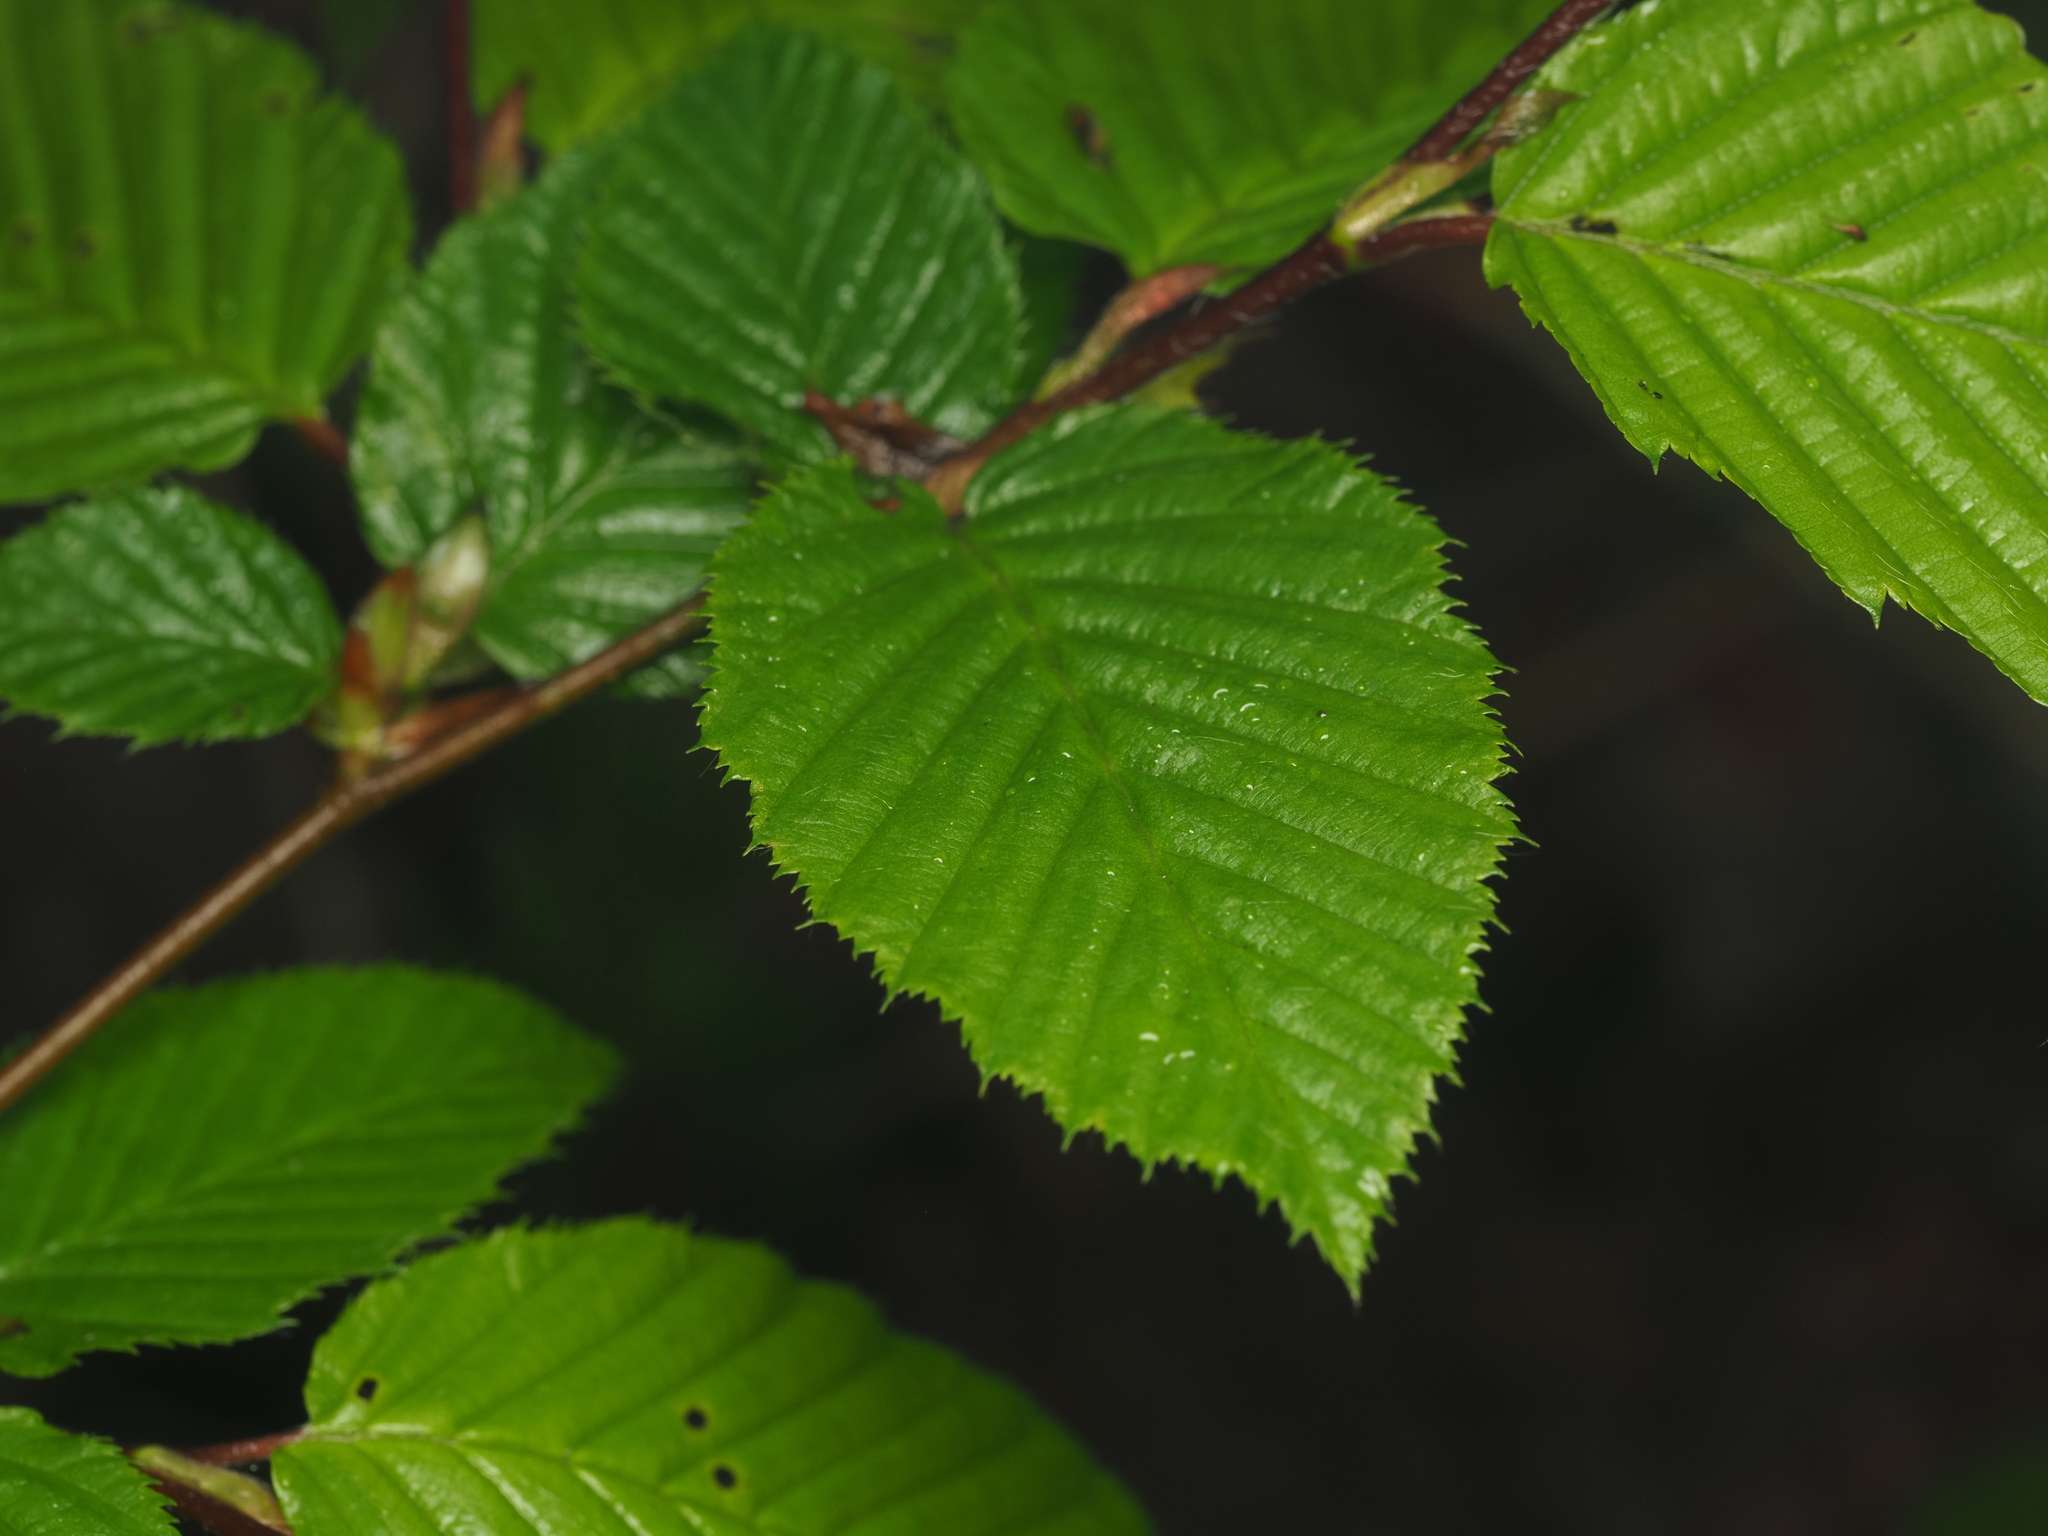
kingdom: Plantae
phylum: Tracheophyta
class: Magnoliopsida
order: Fagales
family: Betulaceae
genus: Carpinus
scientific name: Carpinus betulus
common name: Hornbeam
